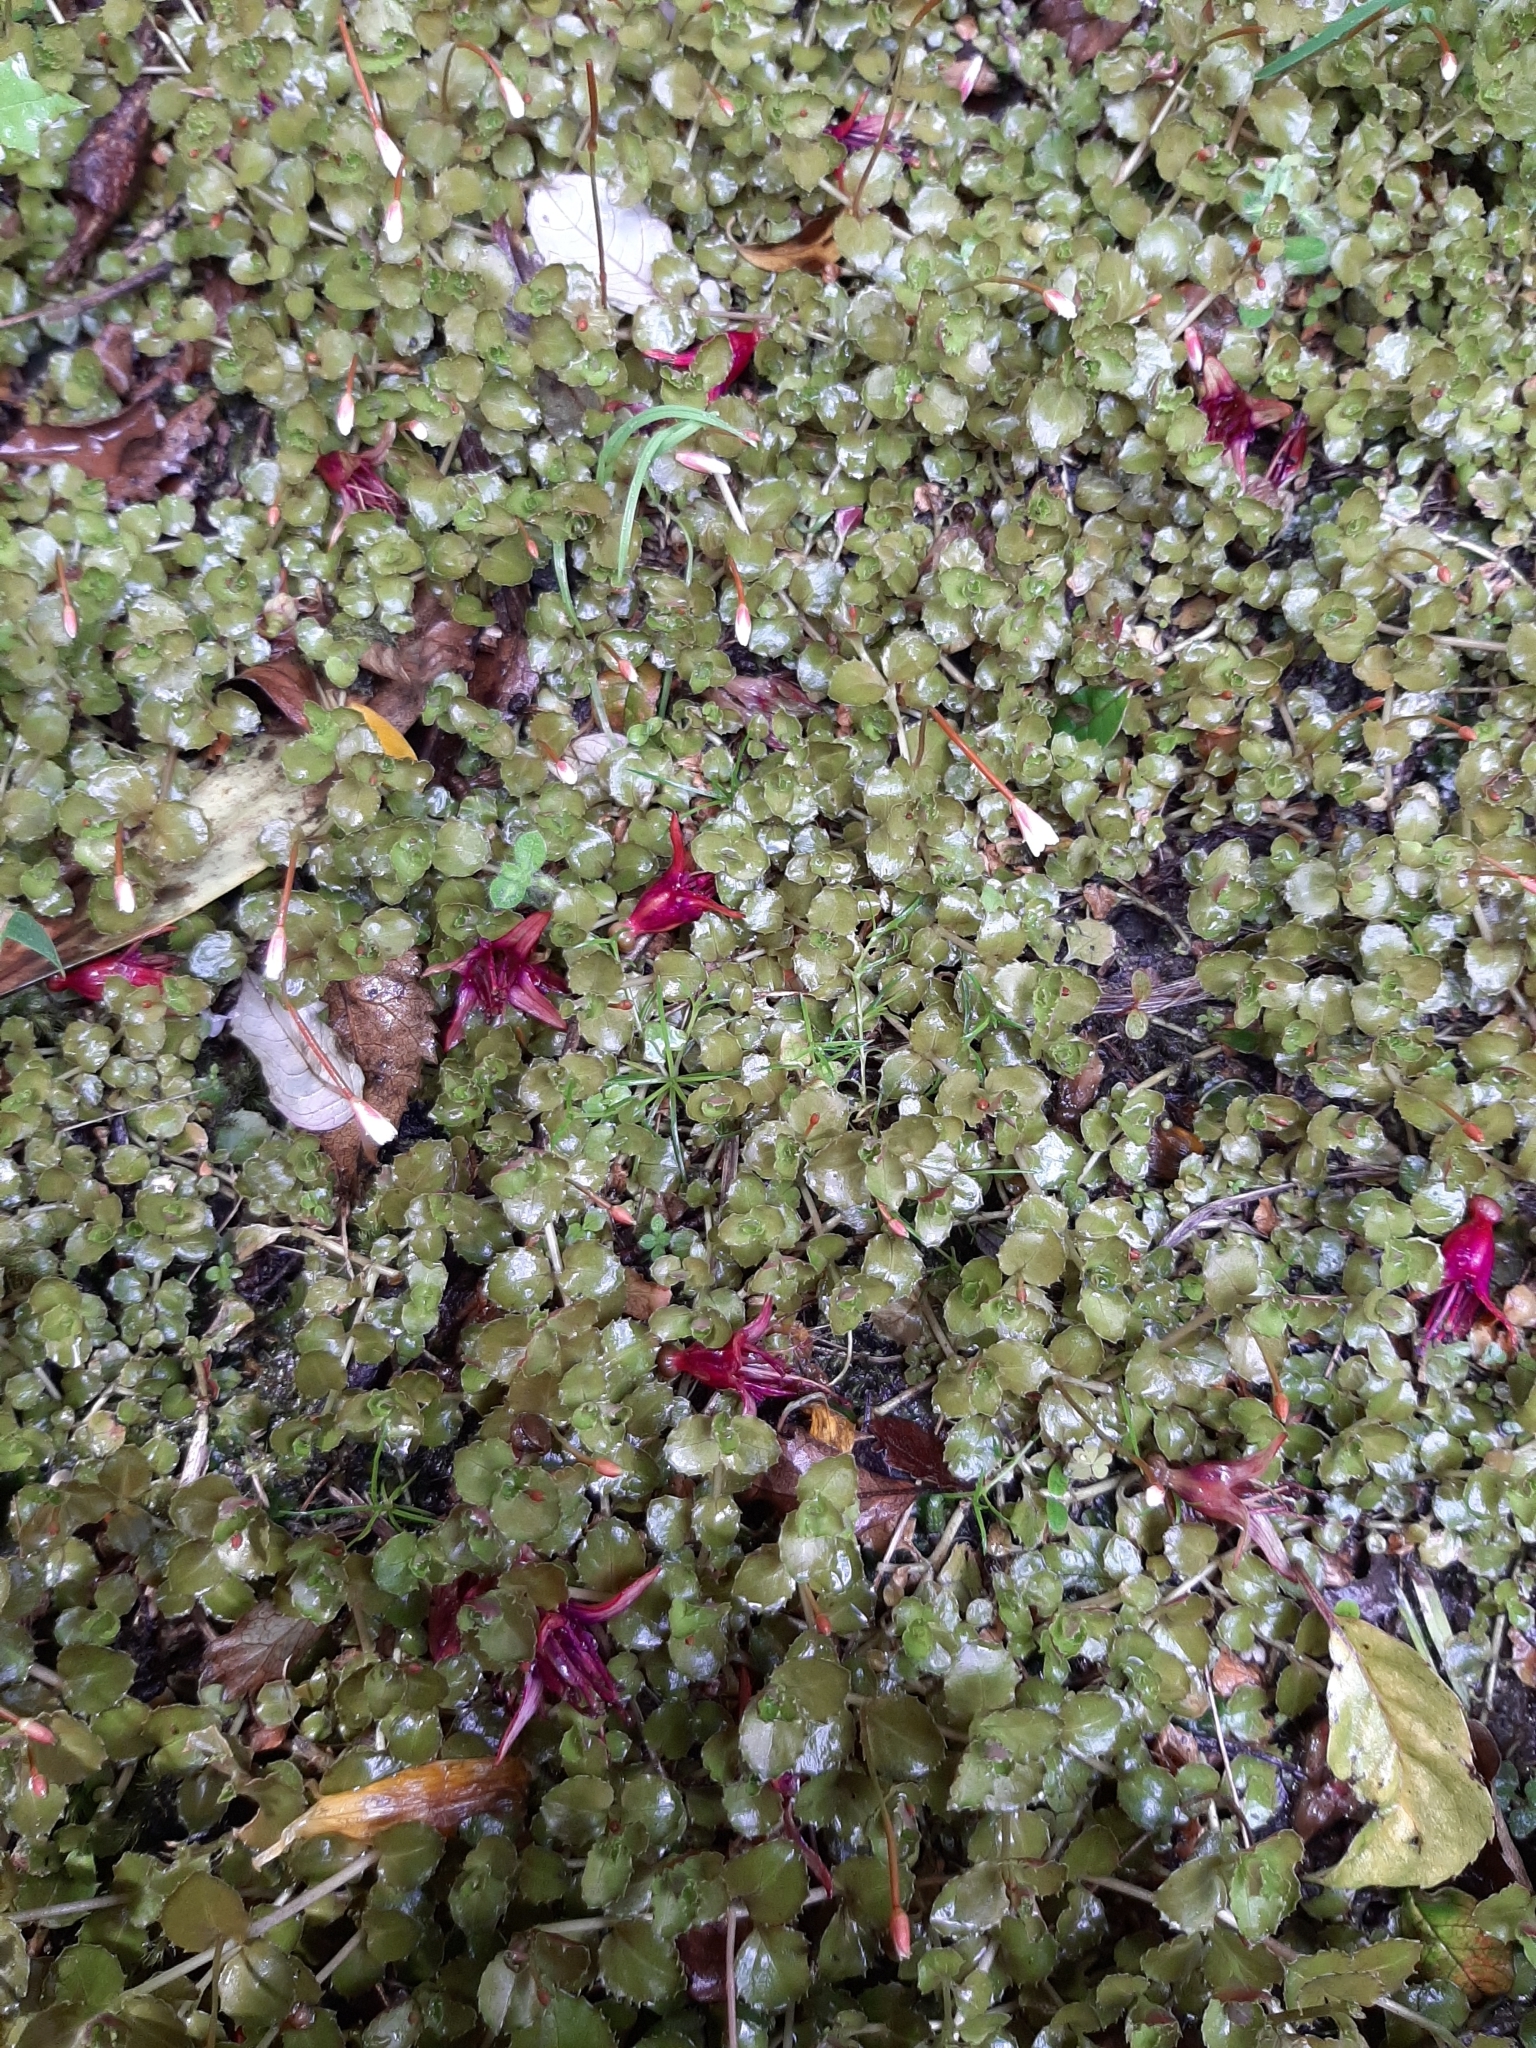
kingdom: Plantae
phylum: Tracheophyta
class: Magnoliopsida
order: Myrtales
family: Onagraceae
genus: Epilobium
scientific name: Epilobium pedunculare
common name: Rockery willowherb
